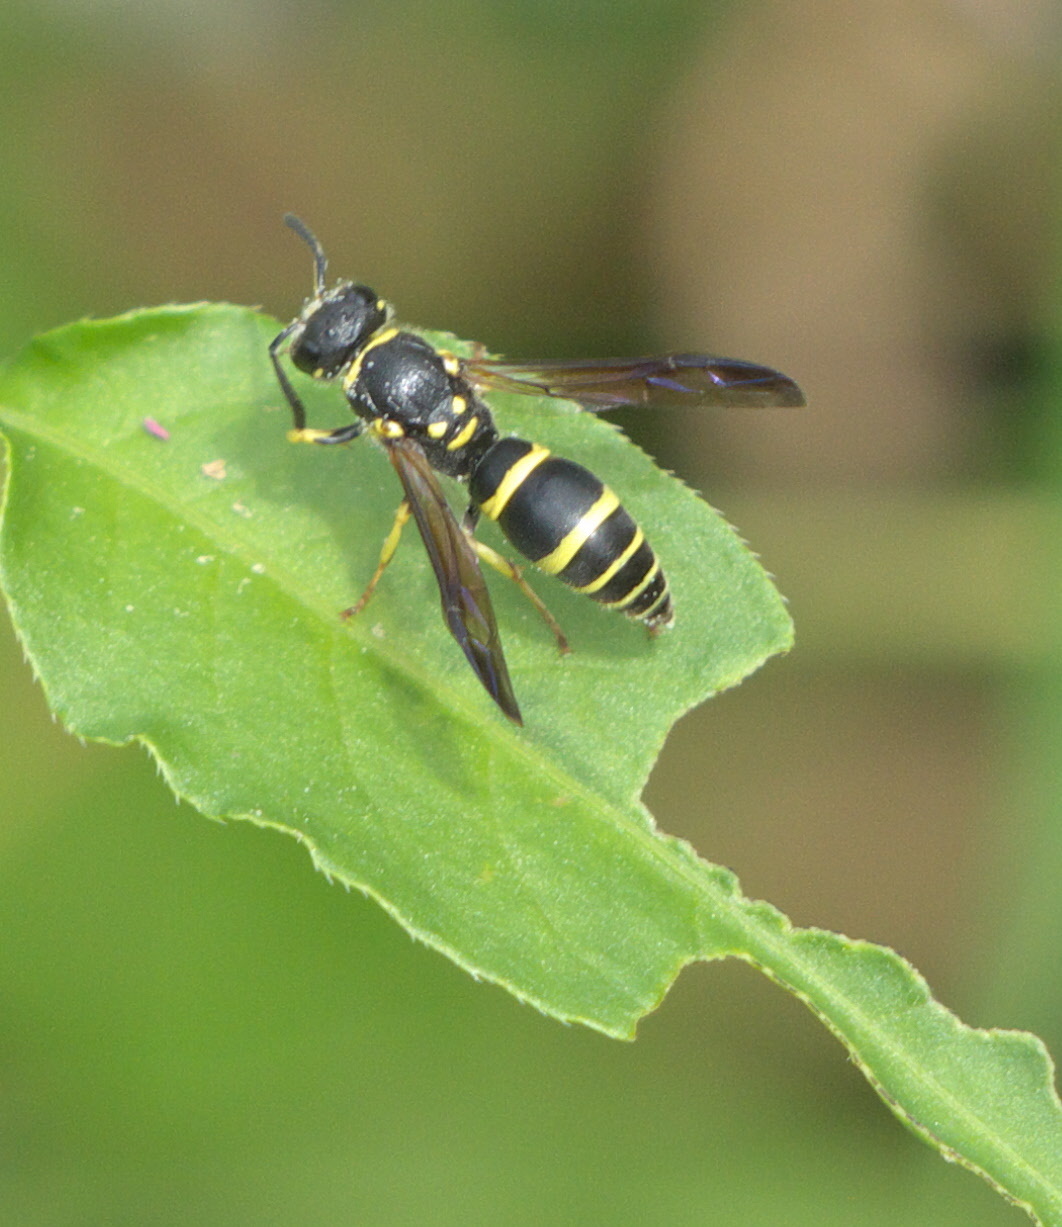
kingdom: Animalia
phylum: Arthropoda
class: Insecta
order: Hymenoptera
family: Vespidae
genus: Ancistrocerus
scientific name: Ancistrocerus adiabatus
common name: Bramble mason wasp
